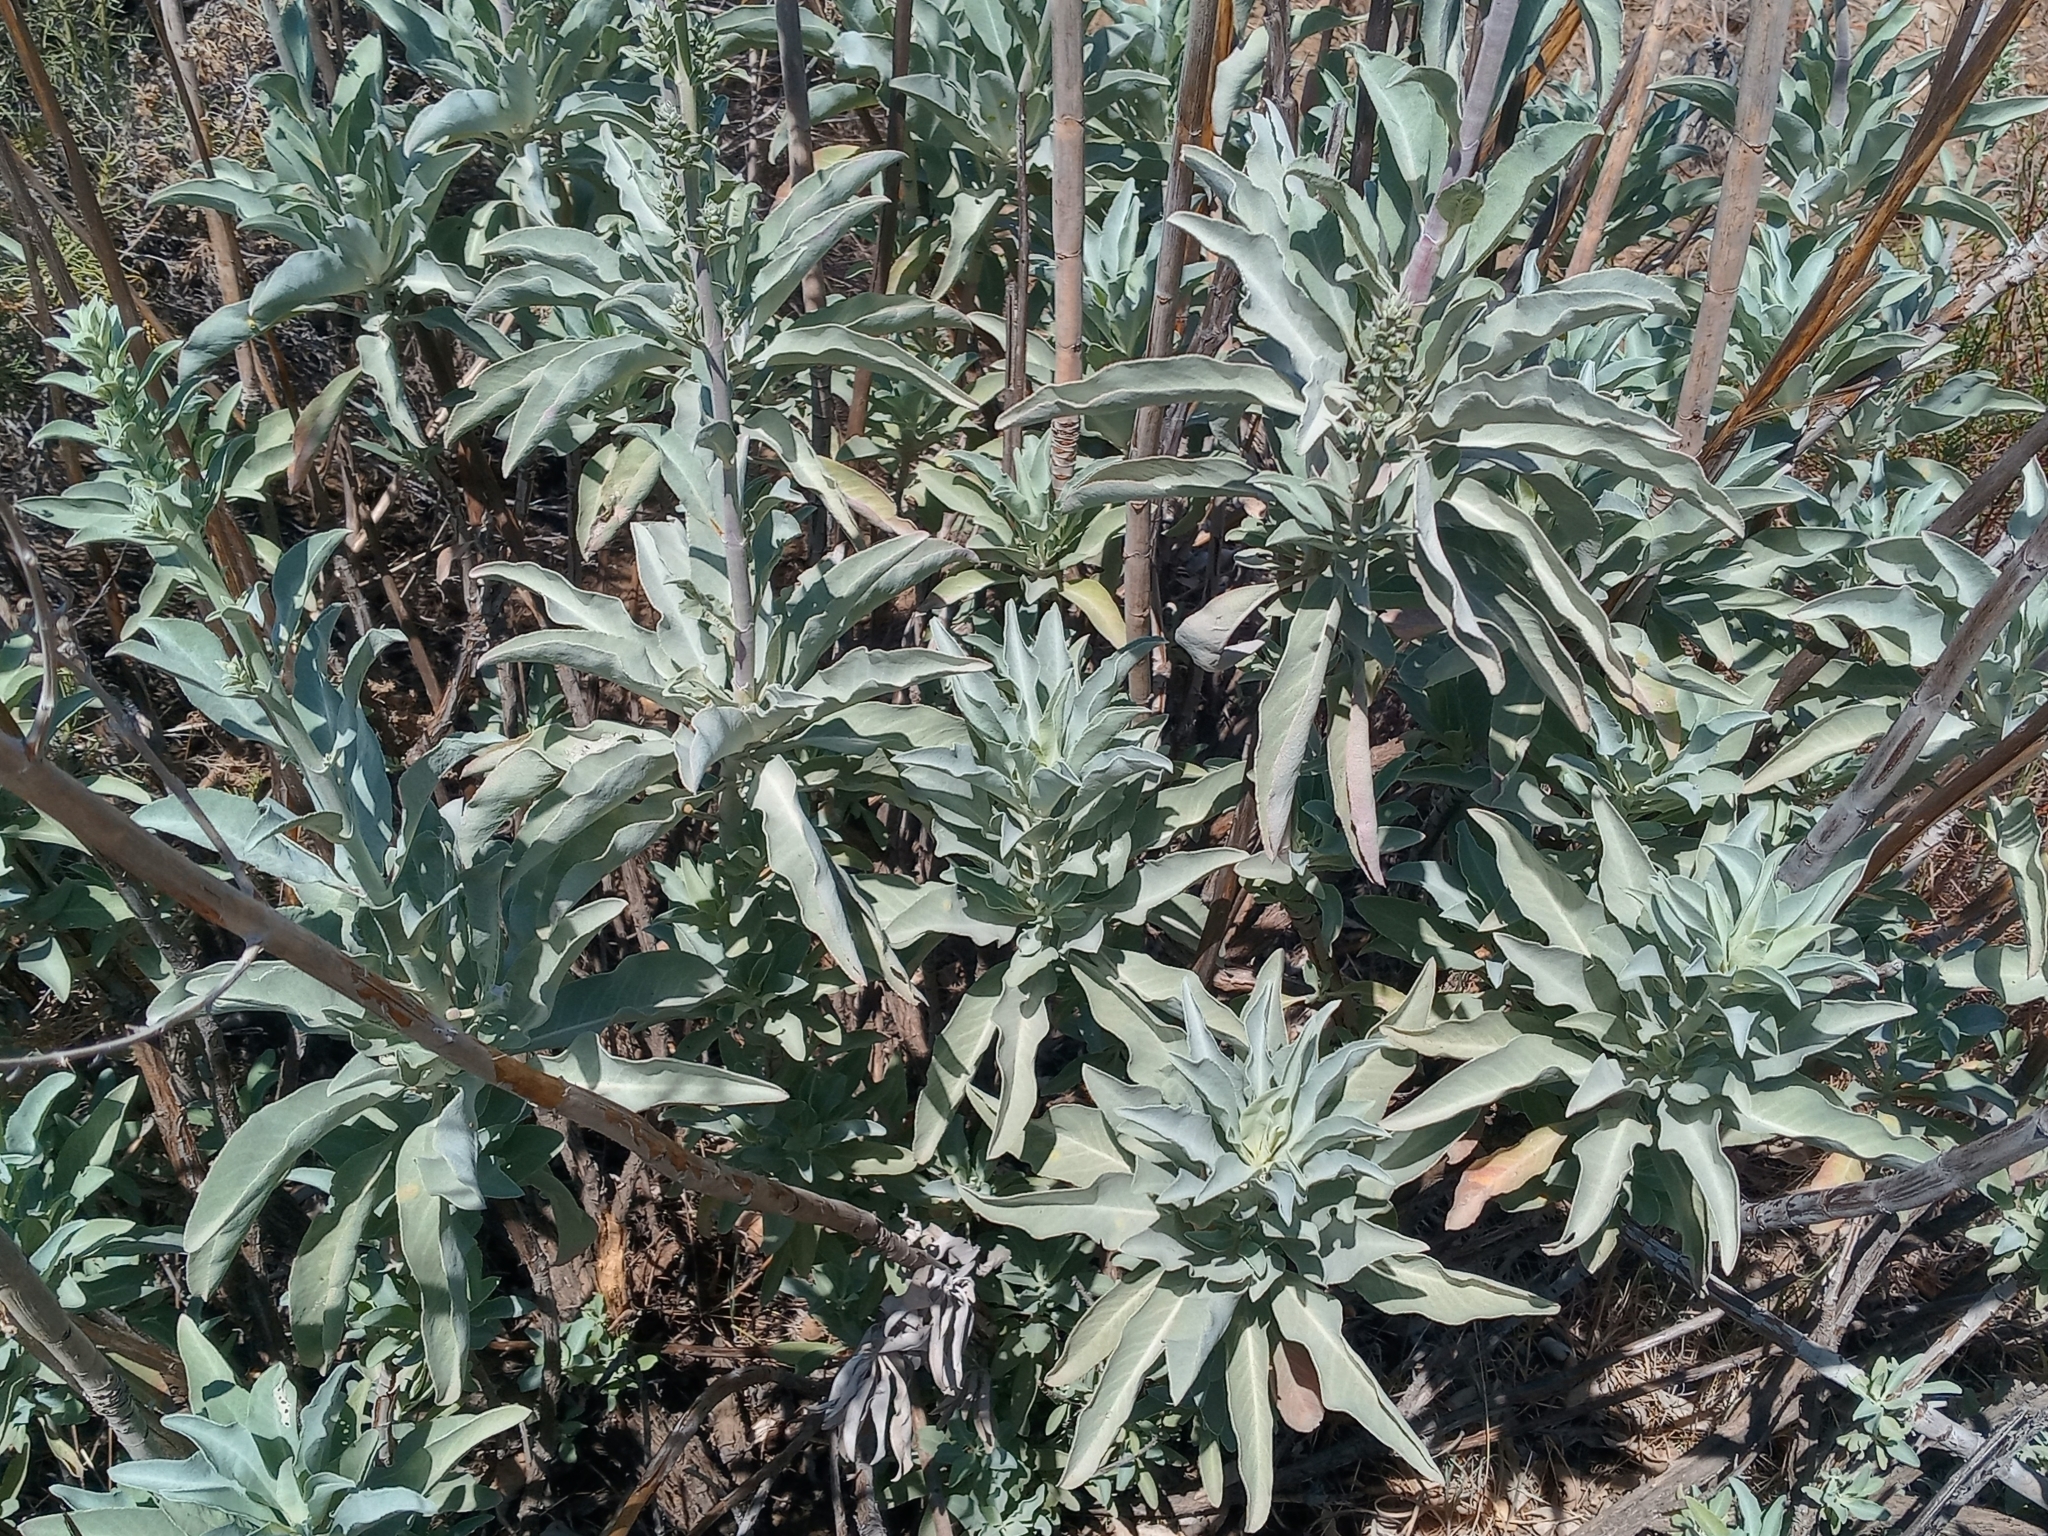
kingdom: Plantae
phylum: Tracheophyta
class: Magnoliopsida
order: Lamiales
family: Lamiaceae
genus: Salvia
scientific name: Salvia apiana
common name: White sage
